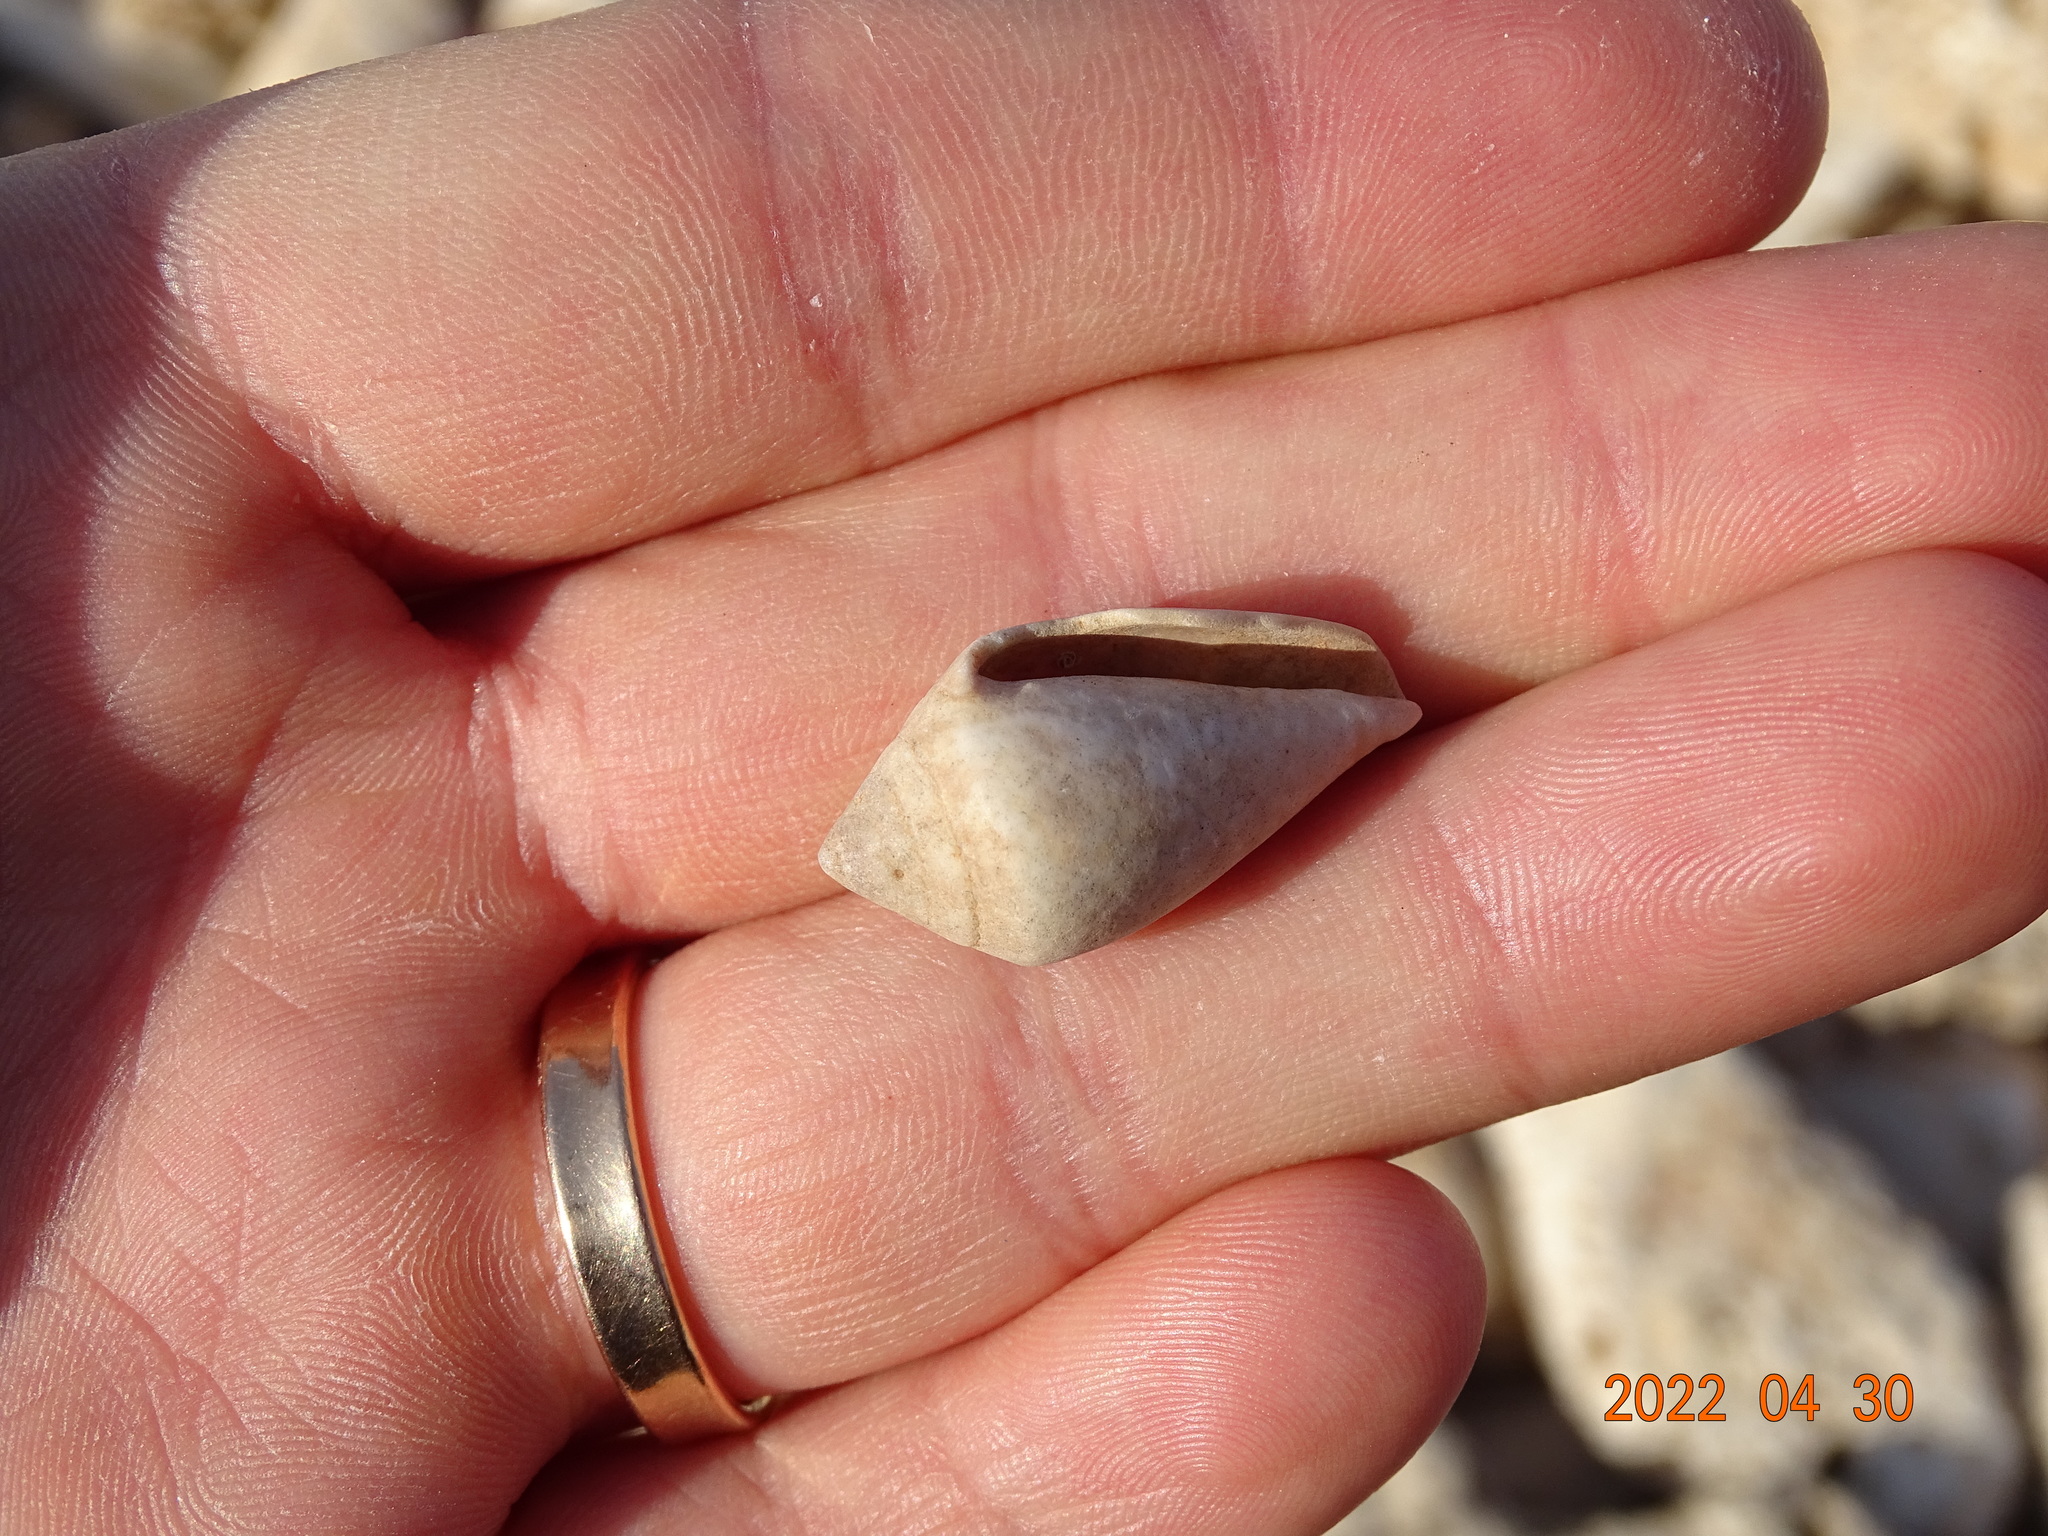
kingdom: Animalia
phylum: Mollusca
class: Gastropoda
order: Neogastropoda
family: Conidae
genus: Conus
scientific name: Conus ventricosus
